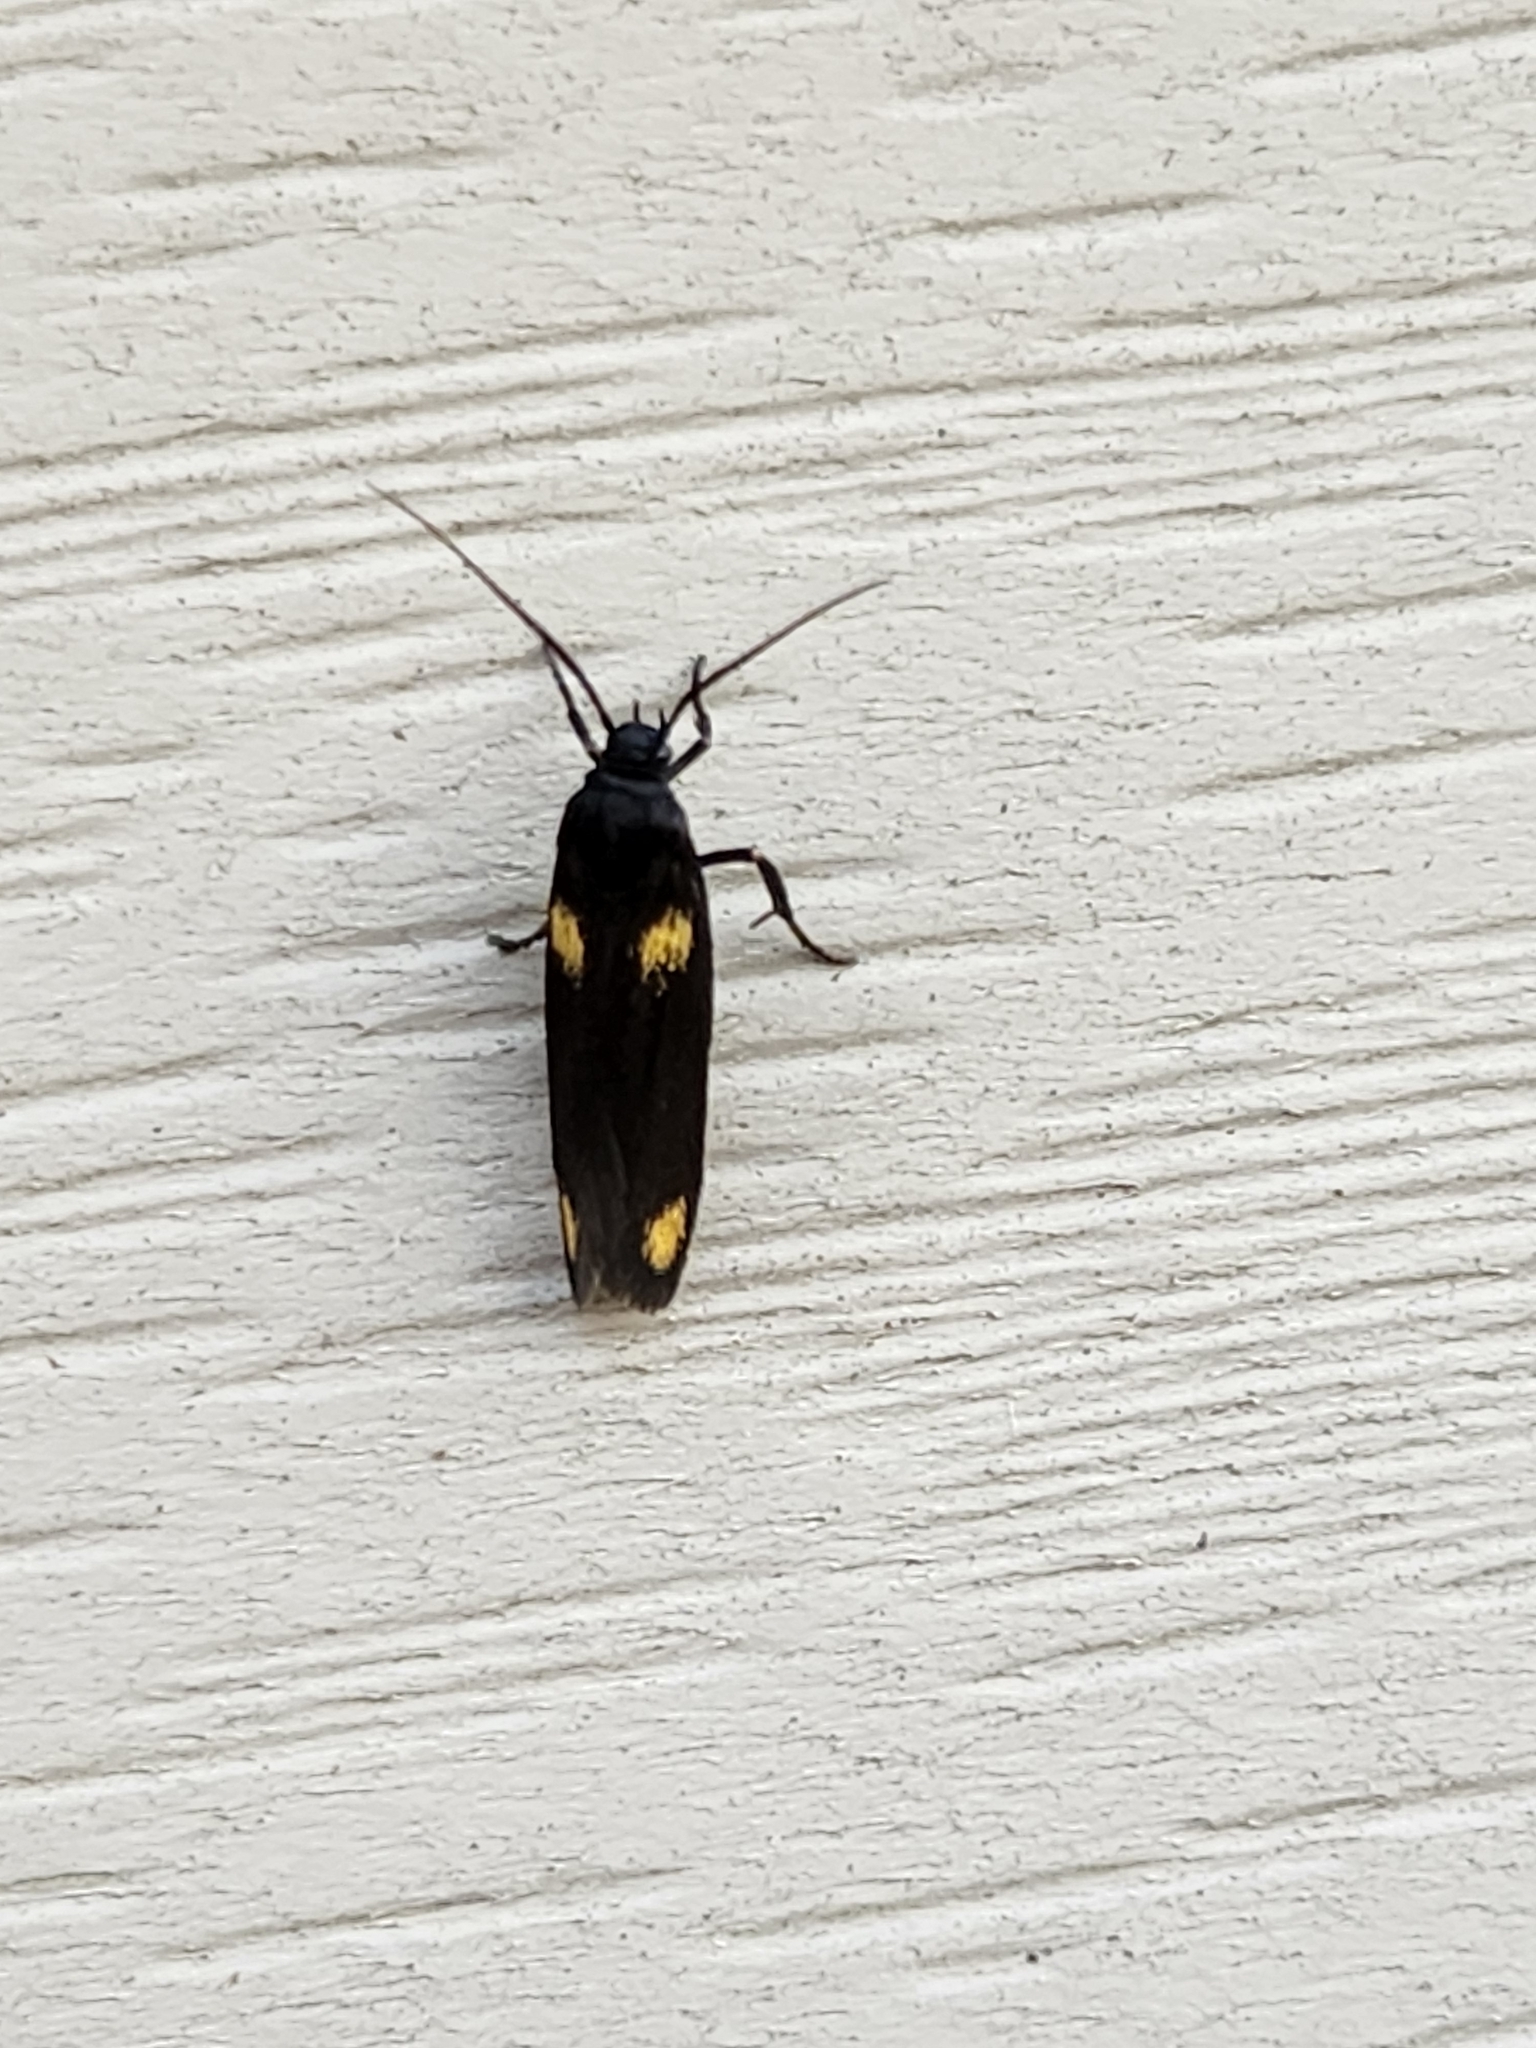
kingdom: Animalia
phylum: Arthropoda
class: Insecta
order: Lepidoptera
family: Scythrididae
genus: Scythris
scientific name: Scythris sinensis
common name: Kentish owlet
